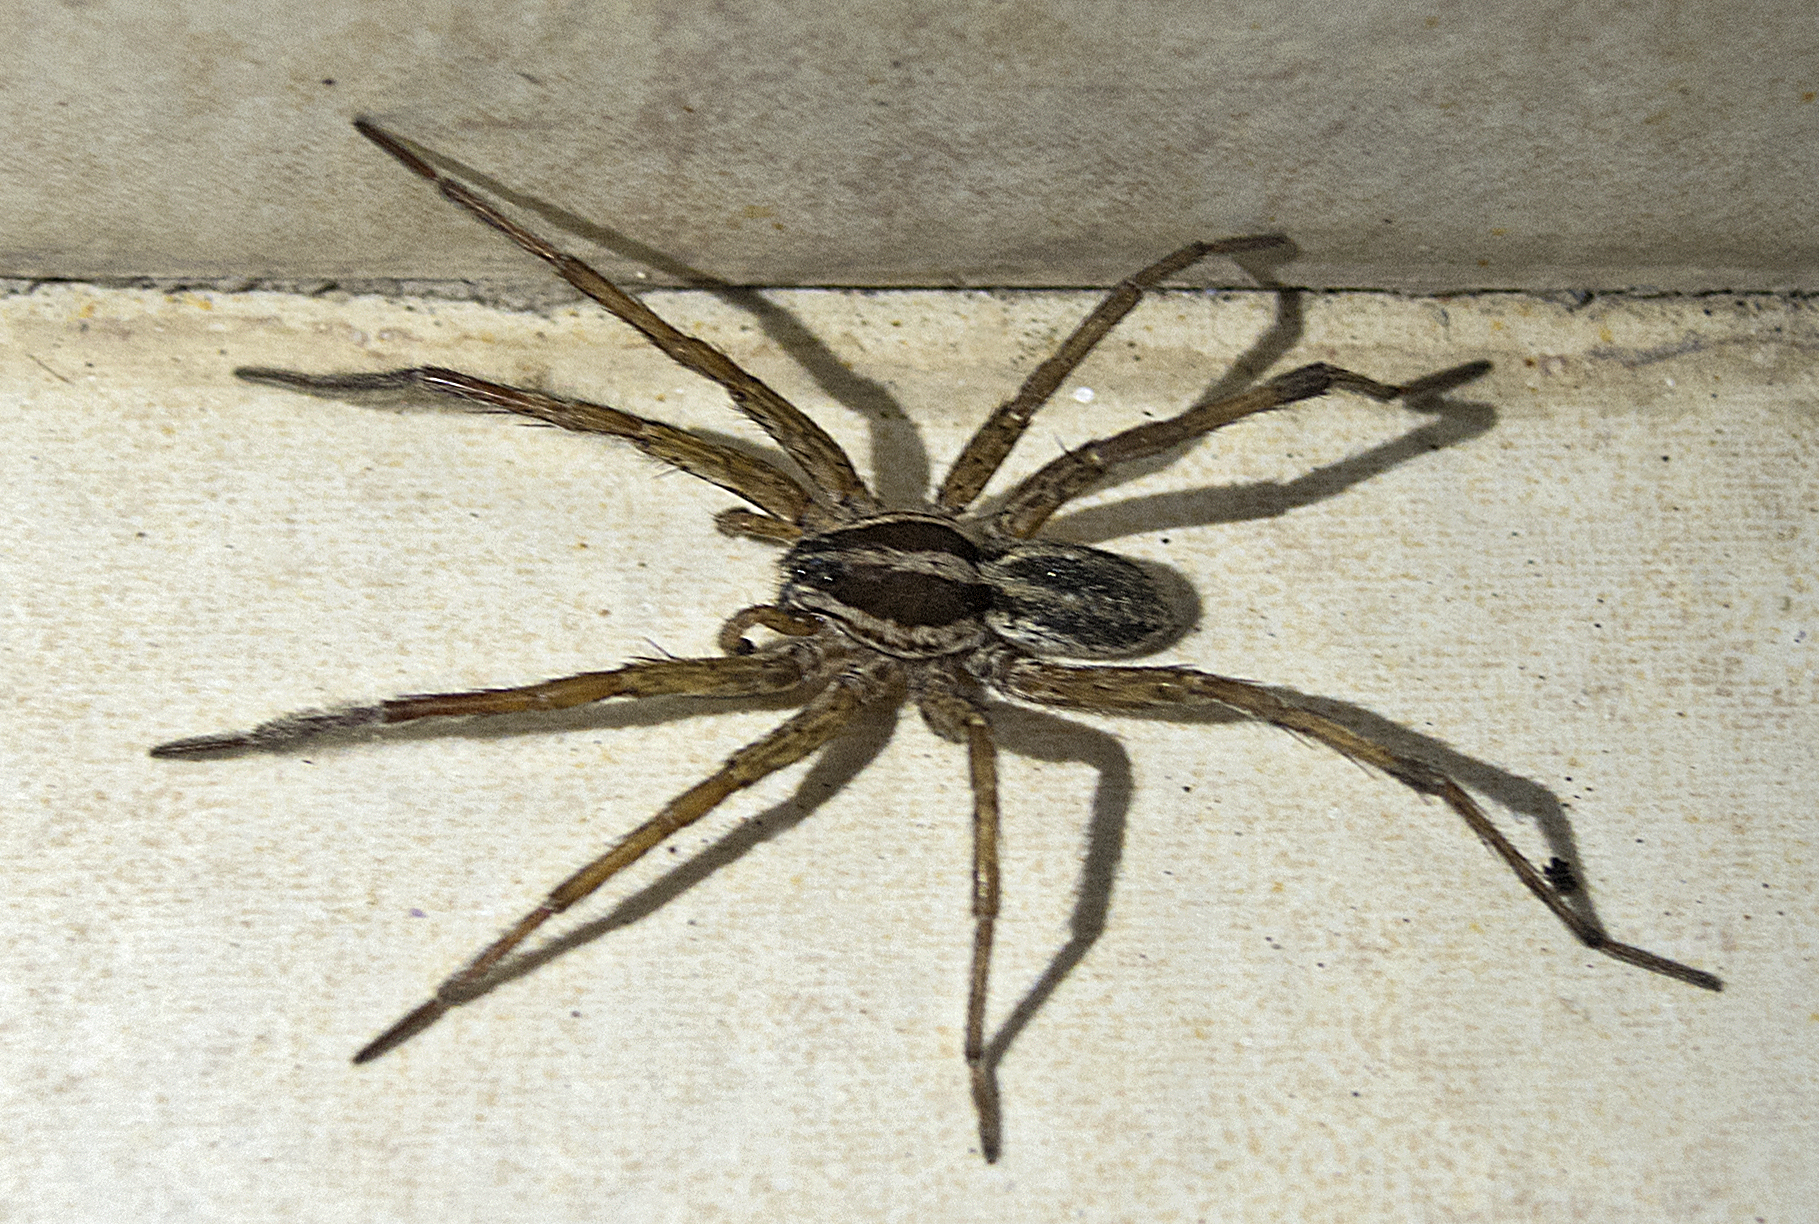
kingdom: Animalia
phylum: Arthropoda
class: Arachnida
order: Araneae
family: Lycosidae
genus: Hogna
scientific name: Hogna radiata
